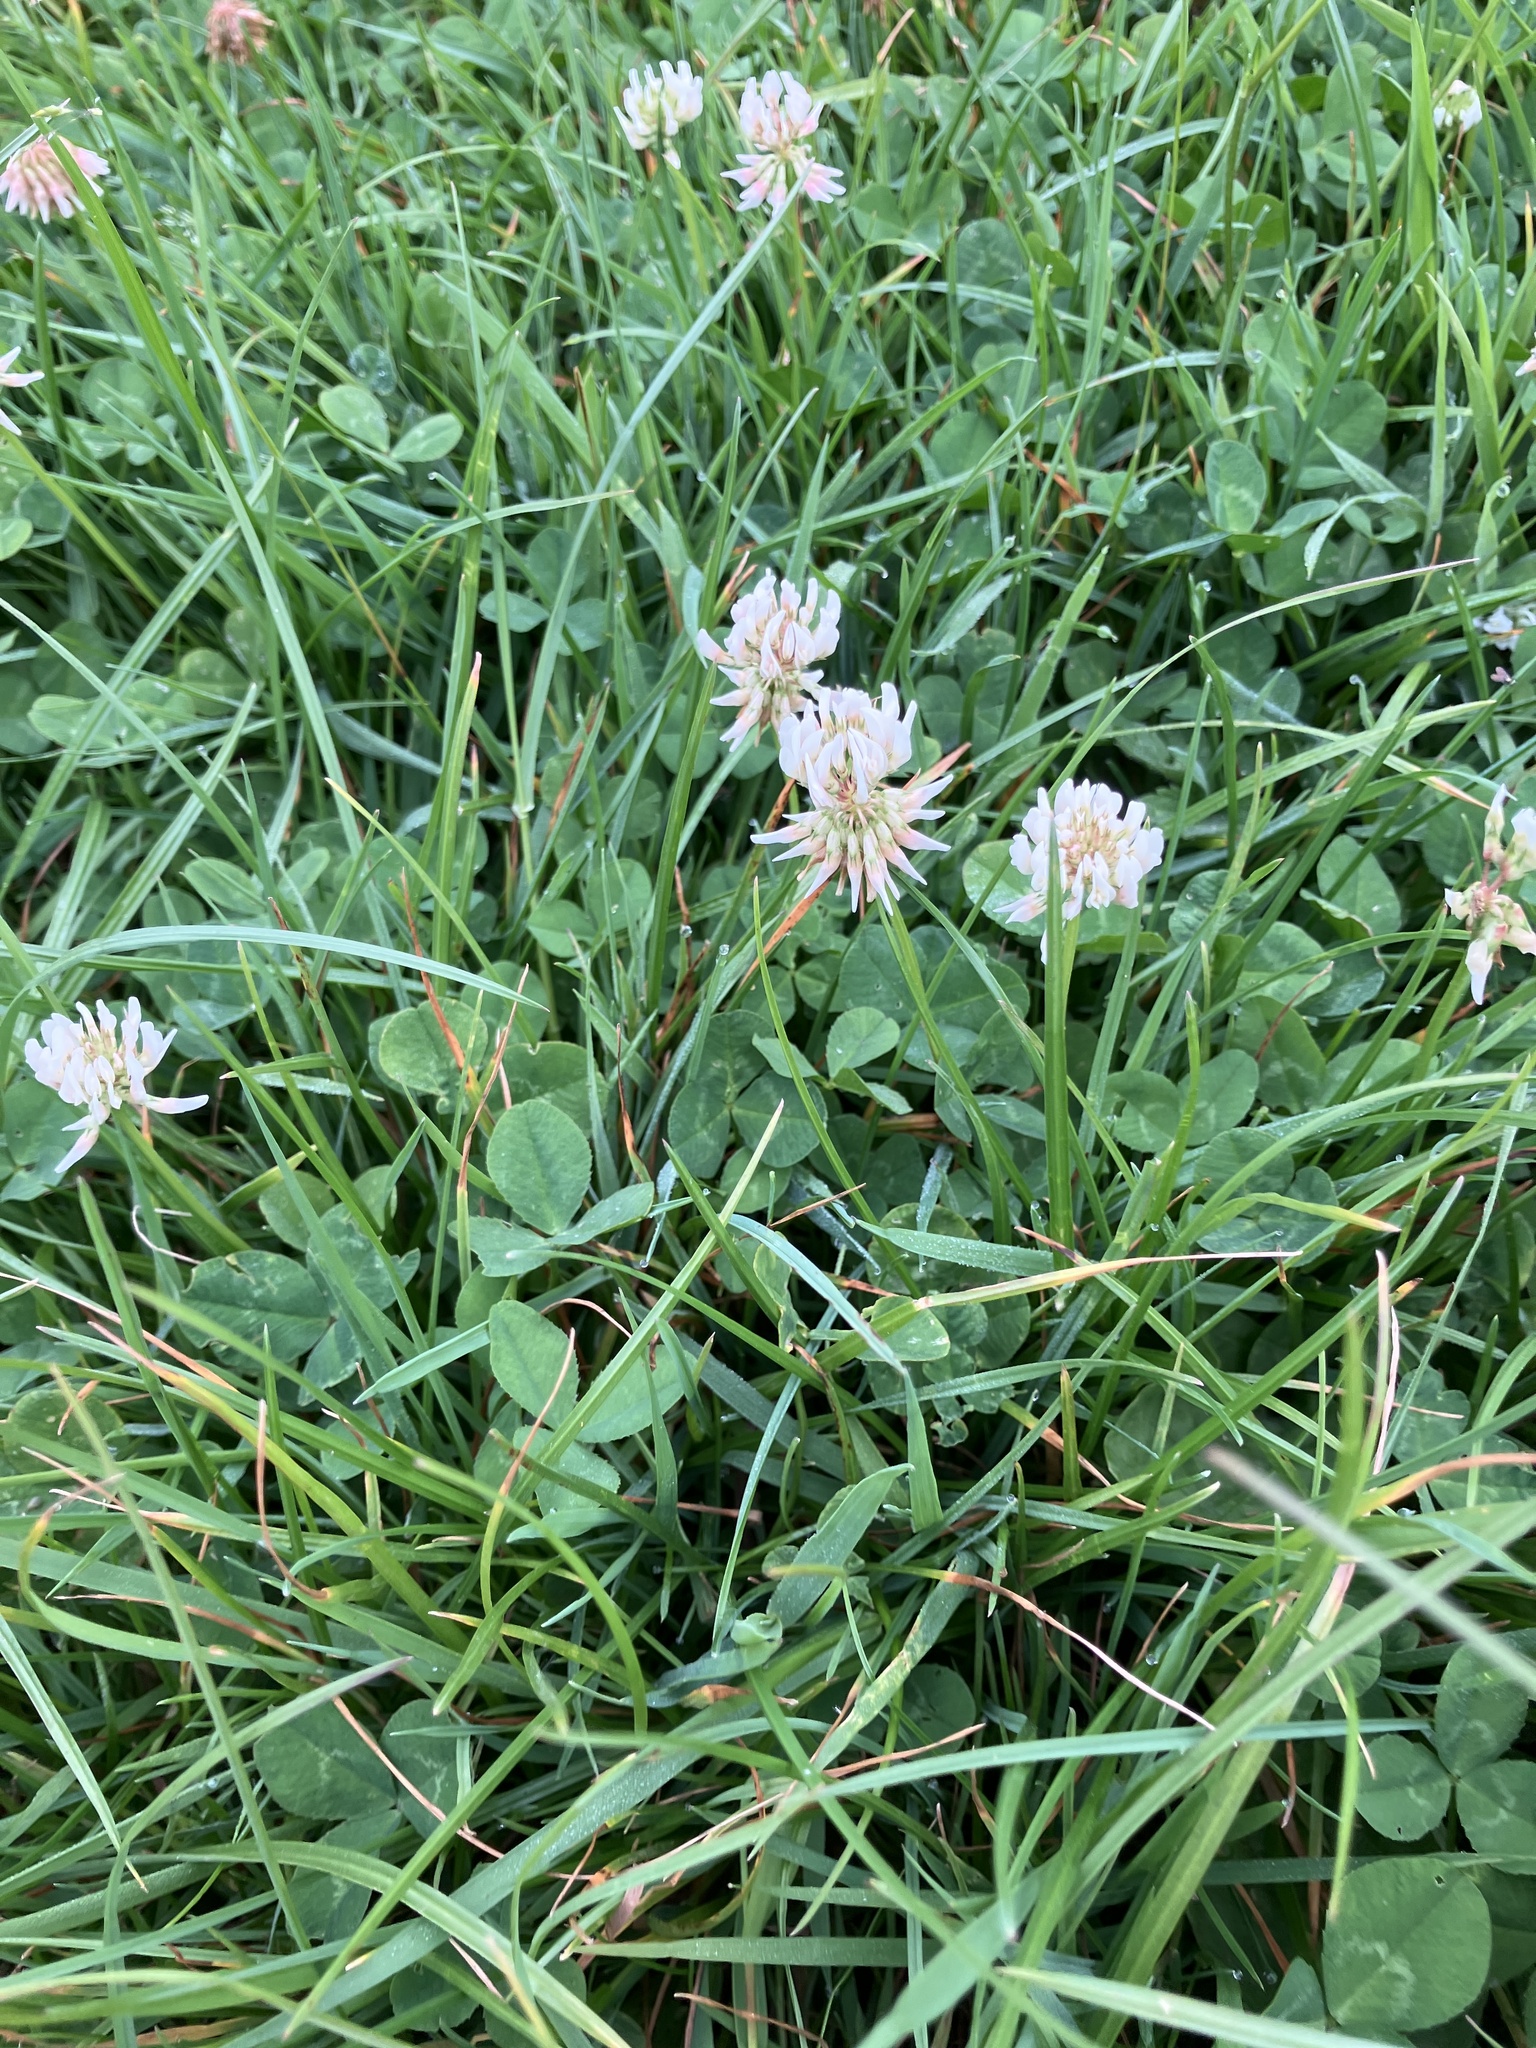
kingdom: Plantae
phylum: Tracheophyta
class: Magnoliopsida
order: Fabales
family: Fabaceae
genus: Trifolium
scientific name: Trifolium repens
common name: White clover
